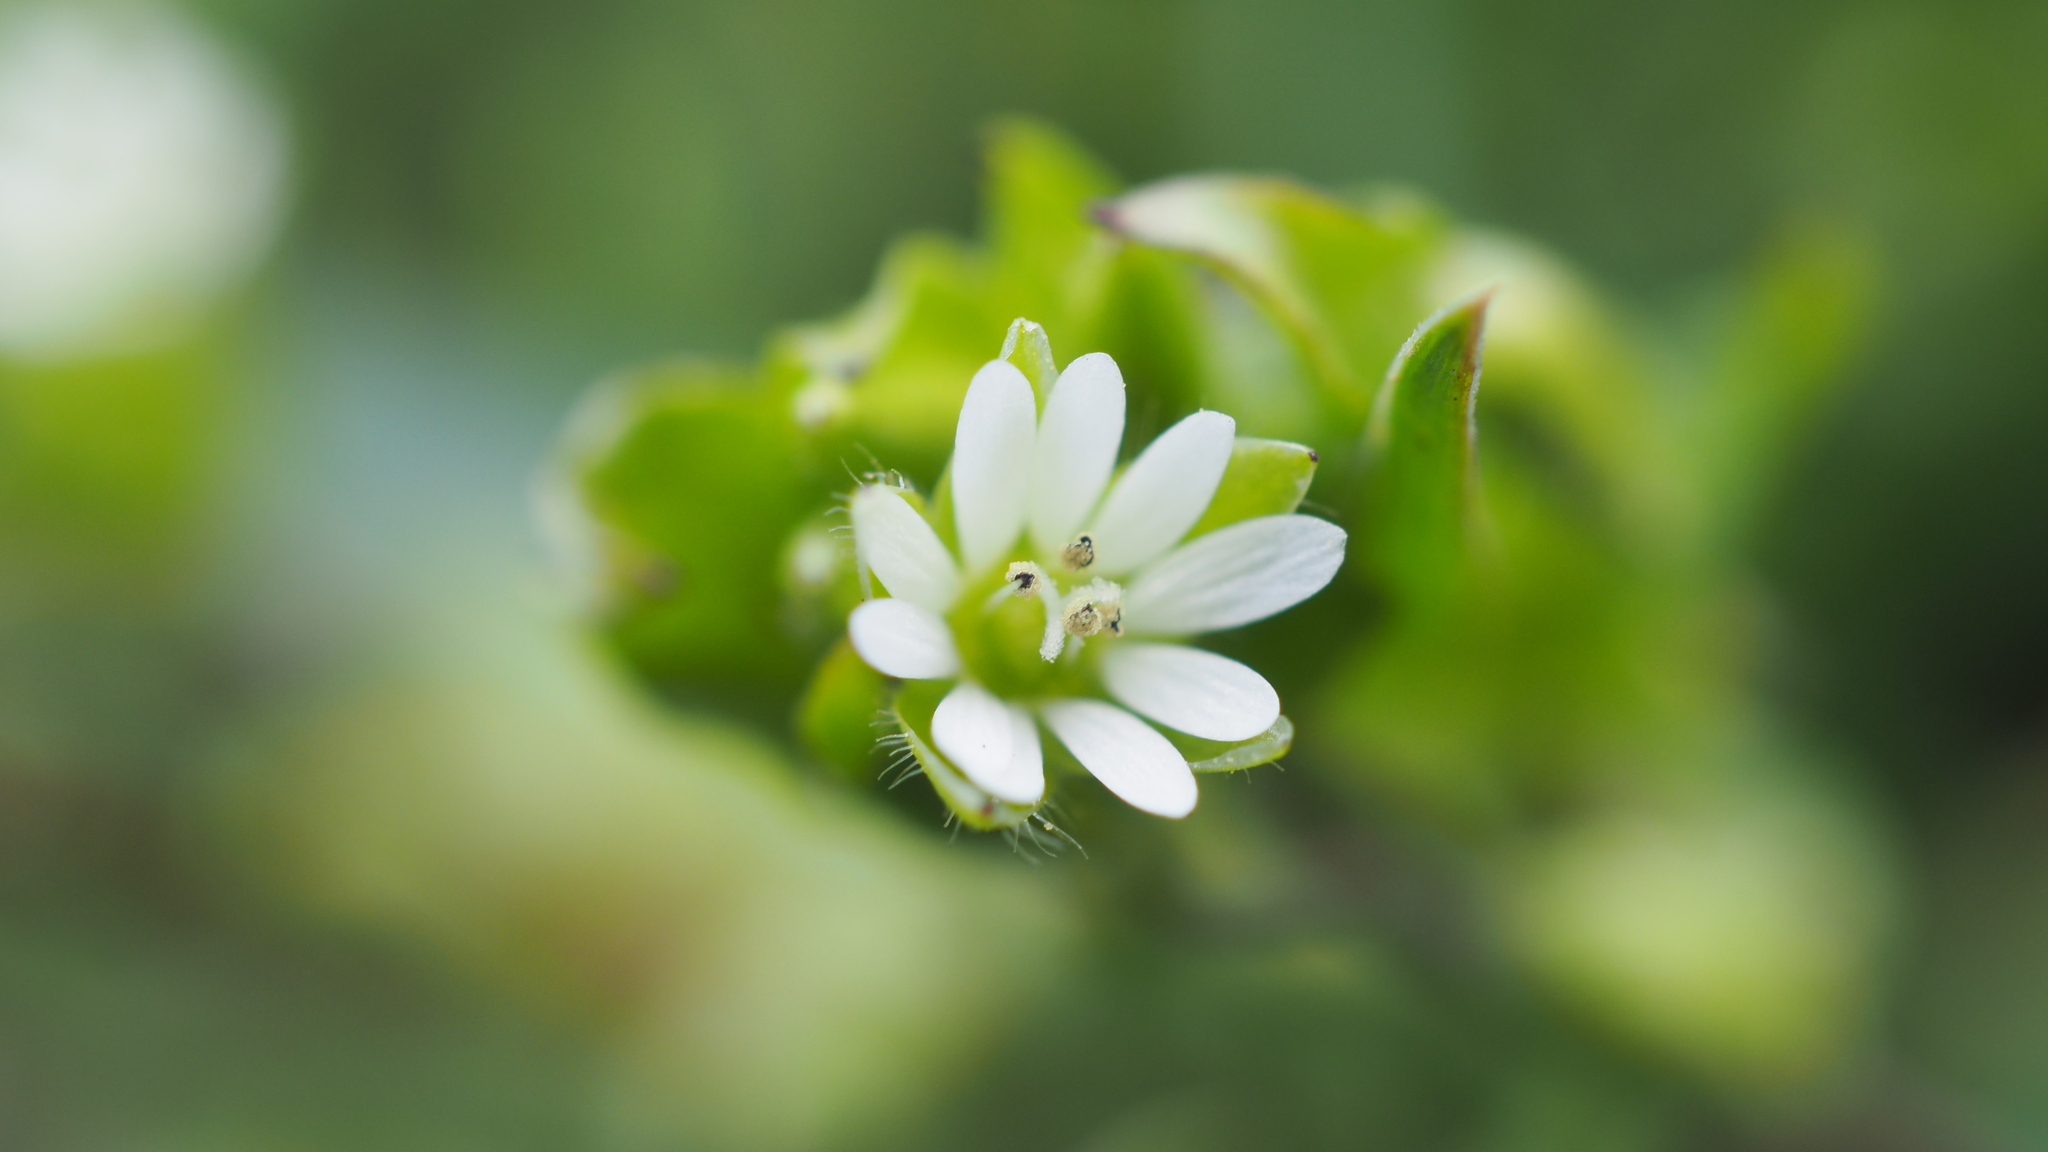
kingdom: Plantae
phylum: Tracheophyta
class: Magnoliopsida
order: Caryophyllales
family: Caryophyllaceae
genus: Stellaria
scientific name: Stellaria media
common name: Common chickweed
